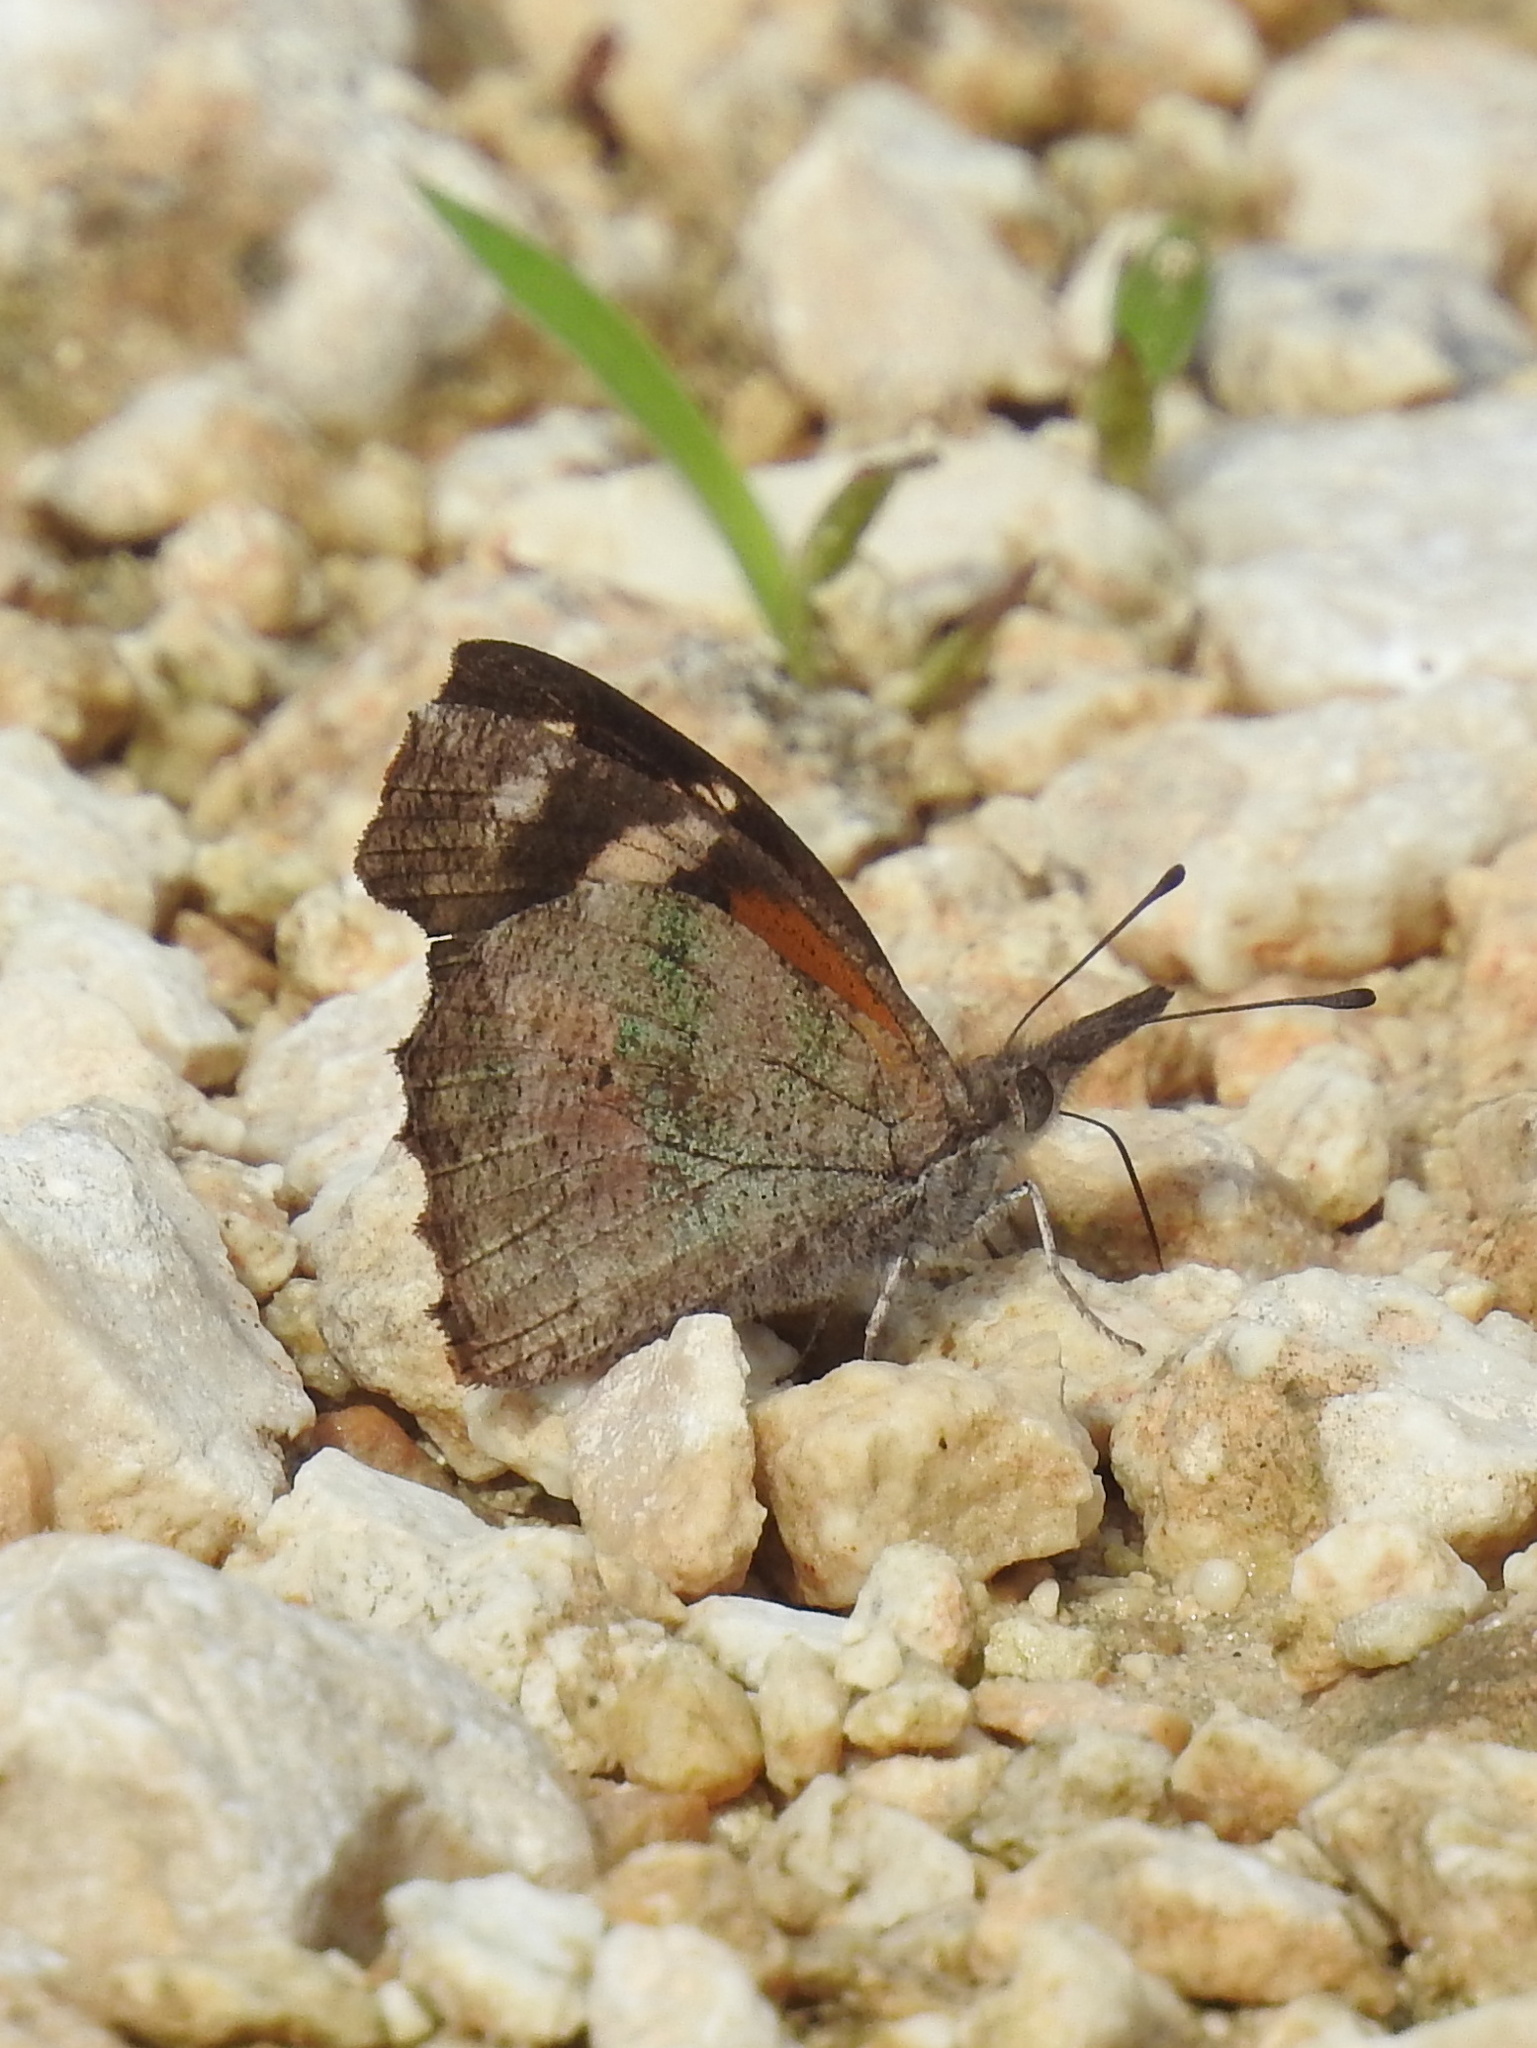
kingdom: Animalia
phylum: Arthropoda
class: Insecta
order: Lepidoptera
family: Nymphalidae
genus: Libytheana
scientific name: Libytheana carinenta
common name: American snout
